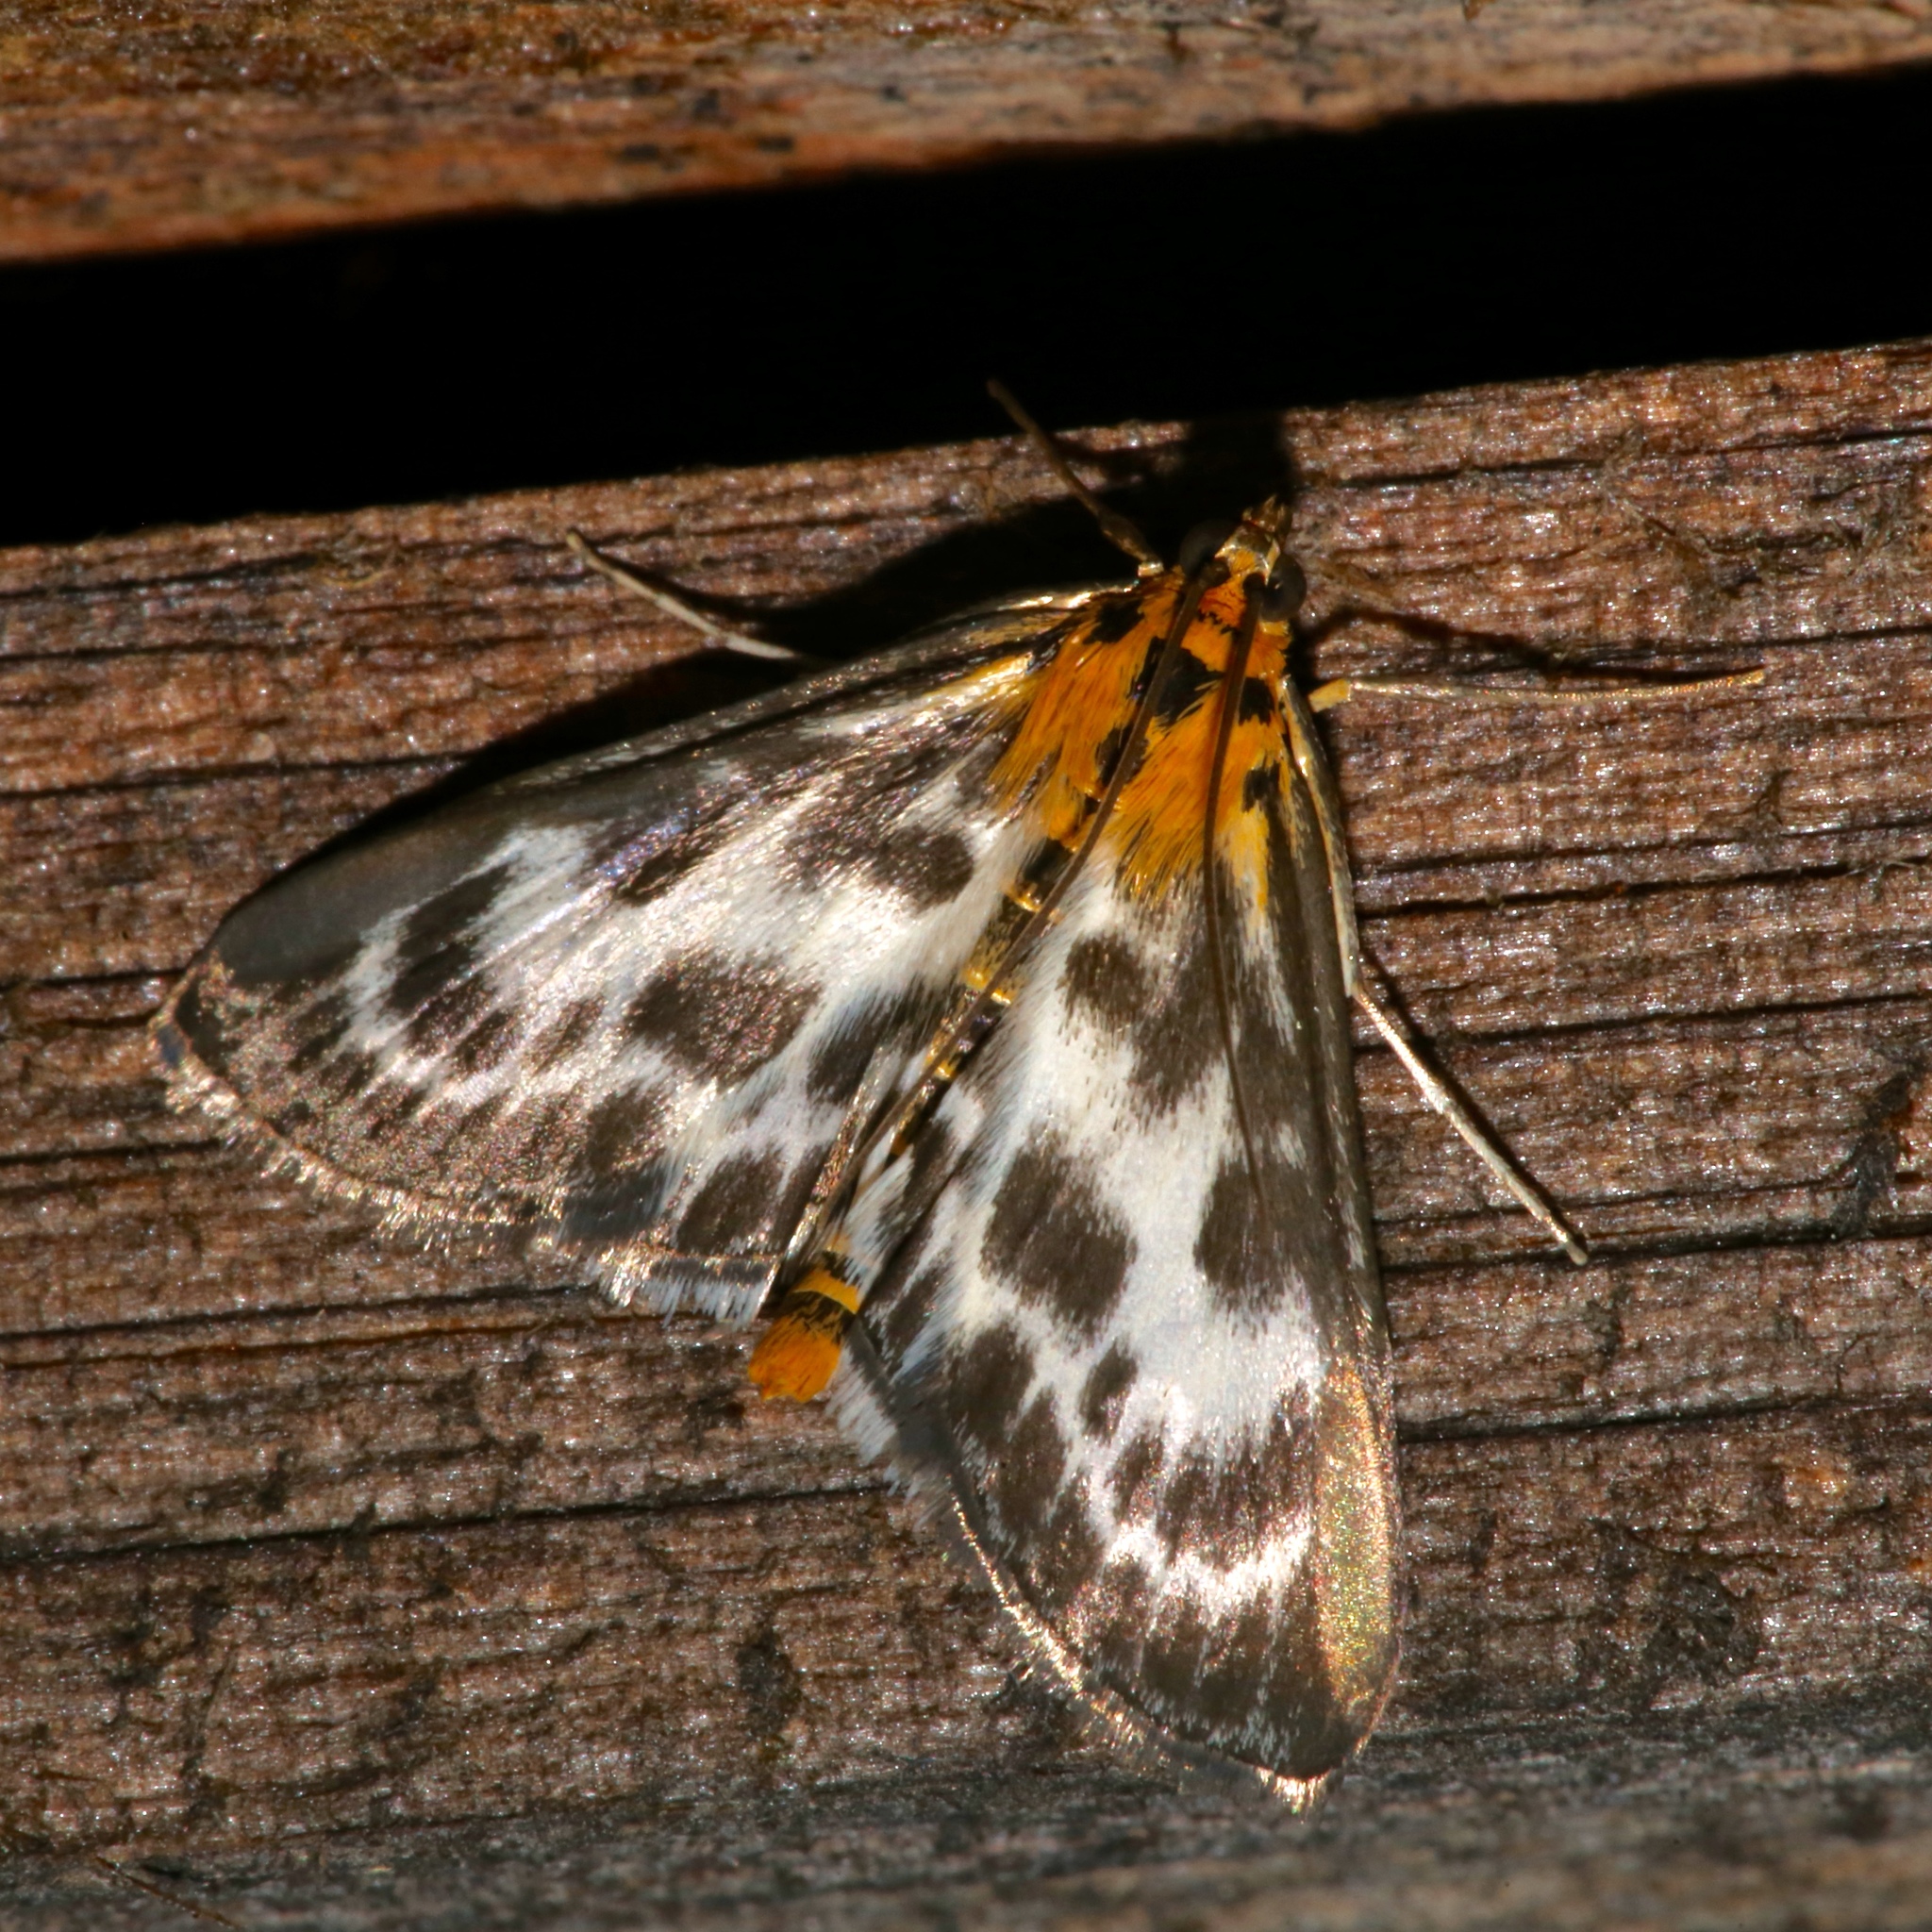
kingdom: Animalia
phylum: Arthropoda
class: Insecta
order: Lepidoptera
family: Crambidae
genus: Anania
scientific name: Anania hortulata
